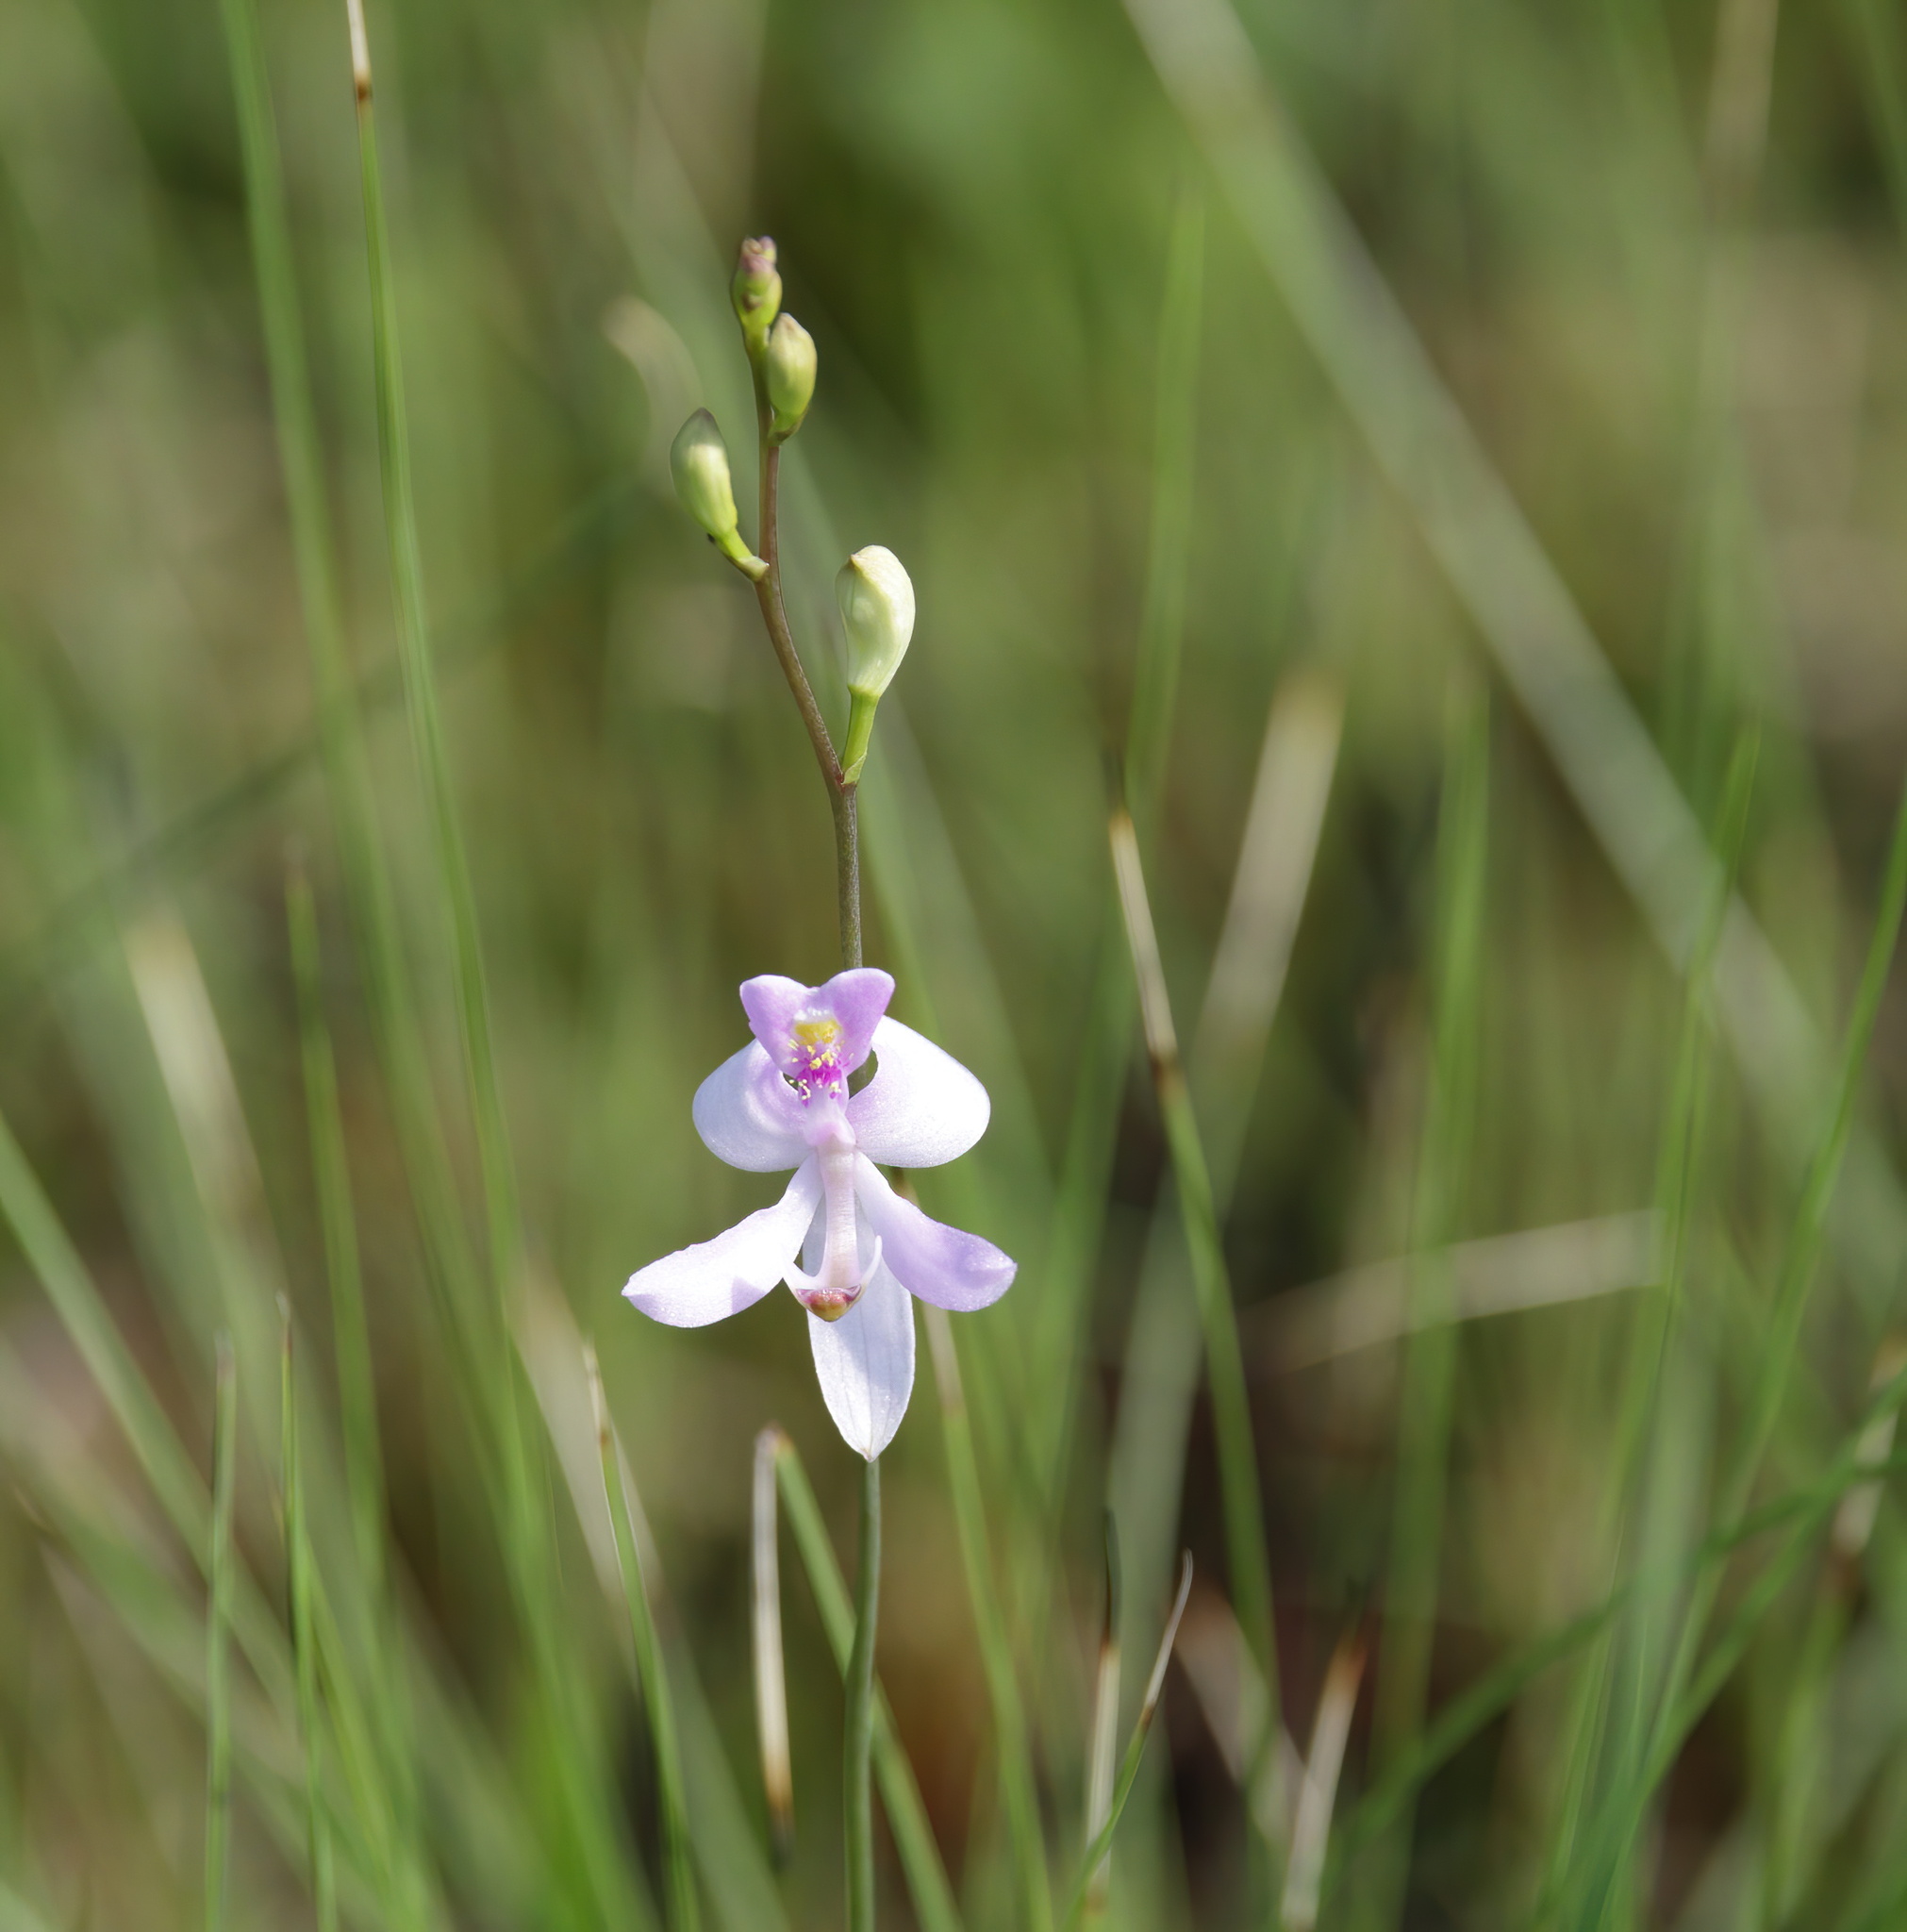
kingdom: Plantae
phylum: Tracheophyta
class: Liliopsida
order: Asparagales
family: Orchidaceae
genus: Calopogon
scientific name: Calopogon pallidus
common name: Pale grasspink
